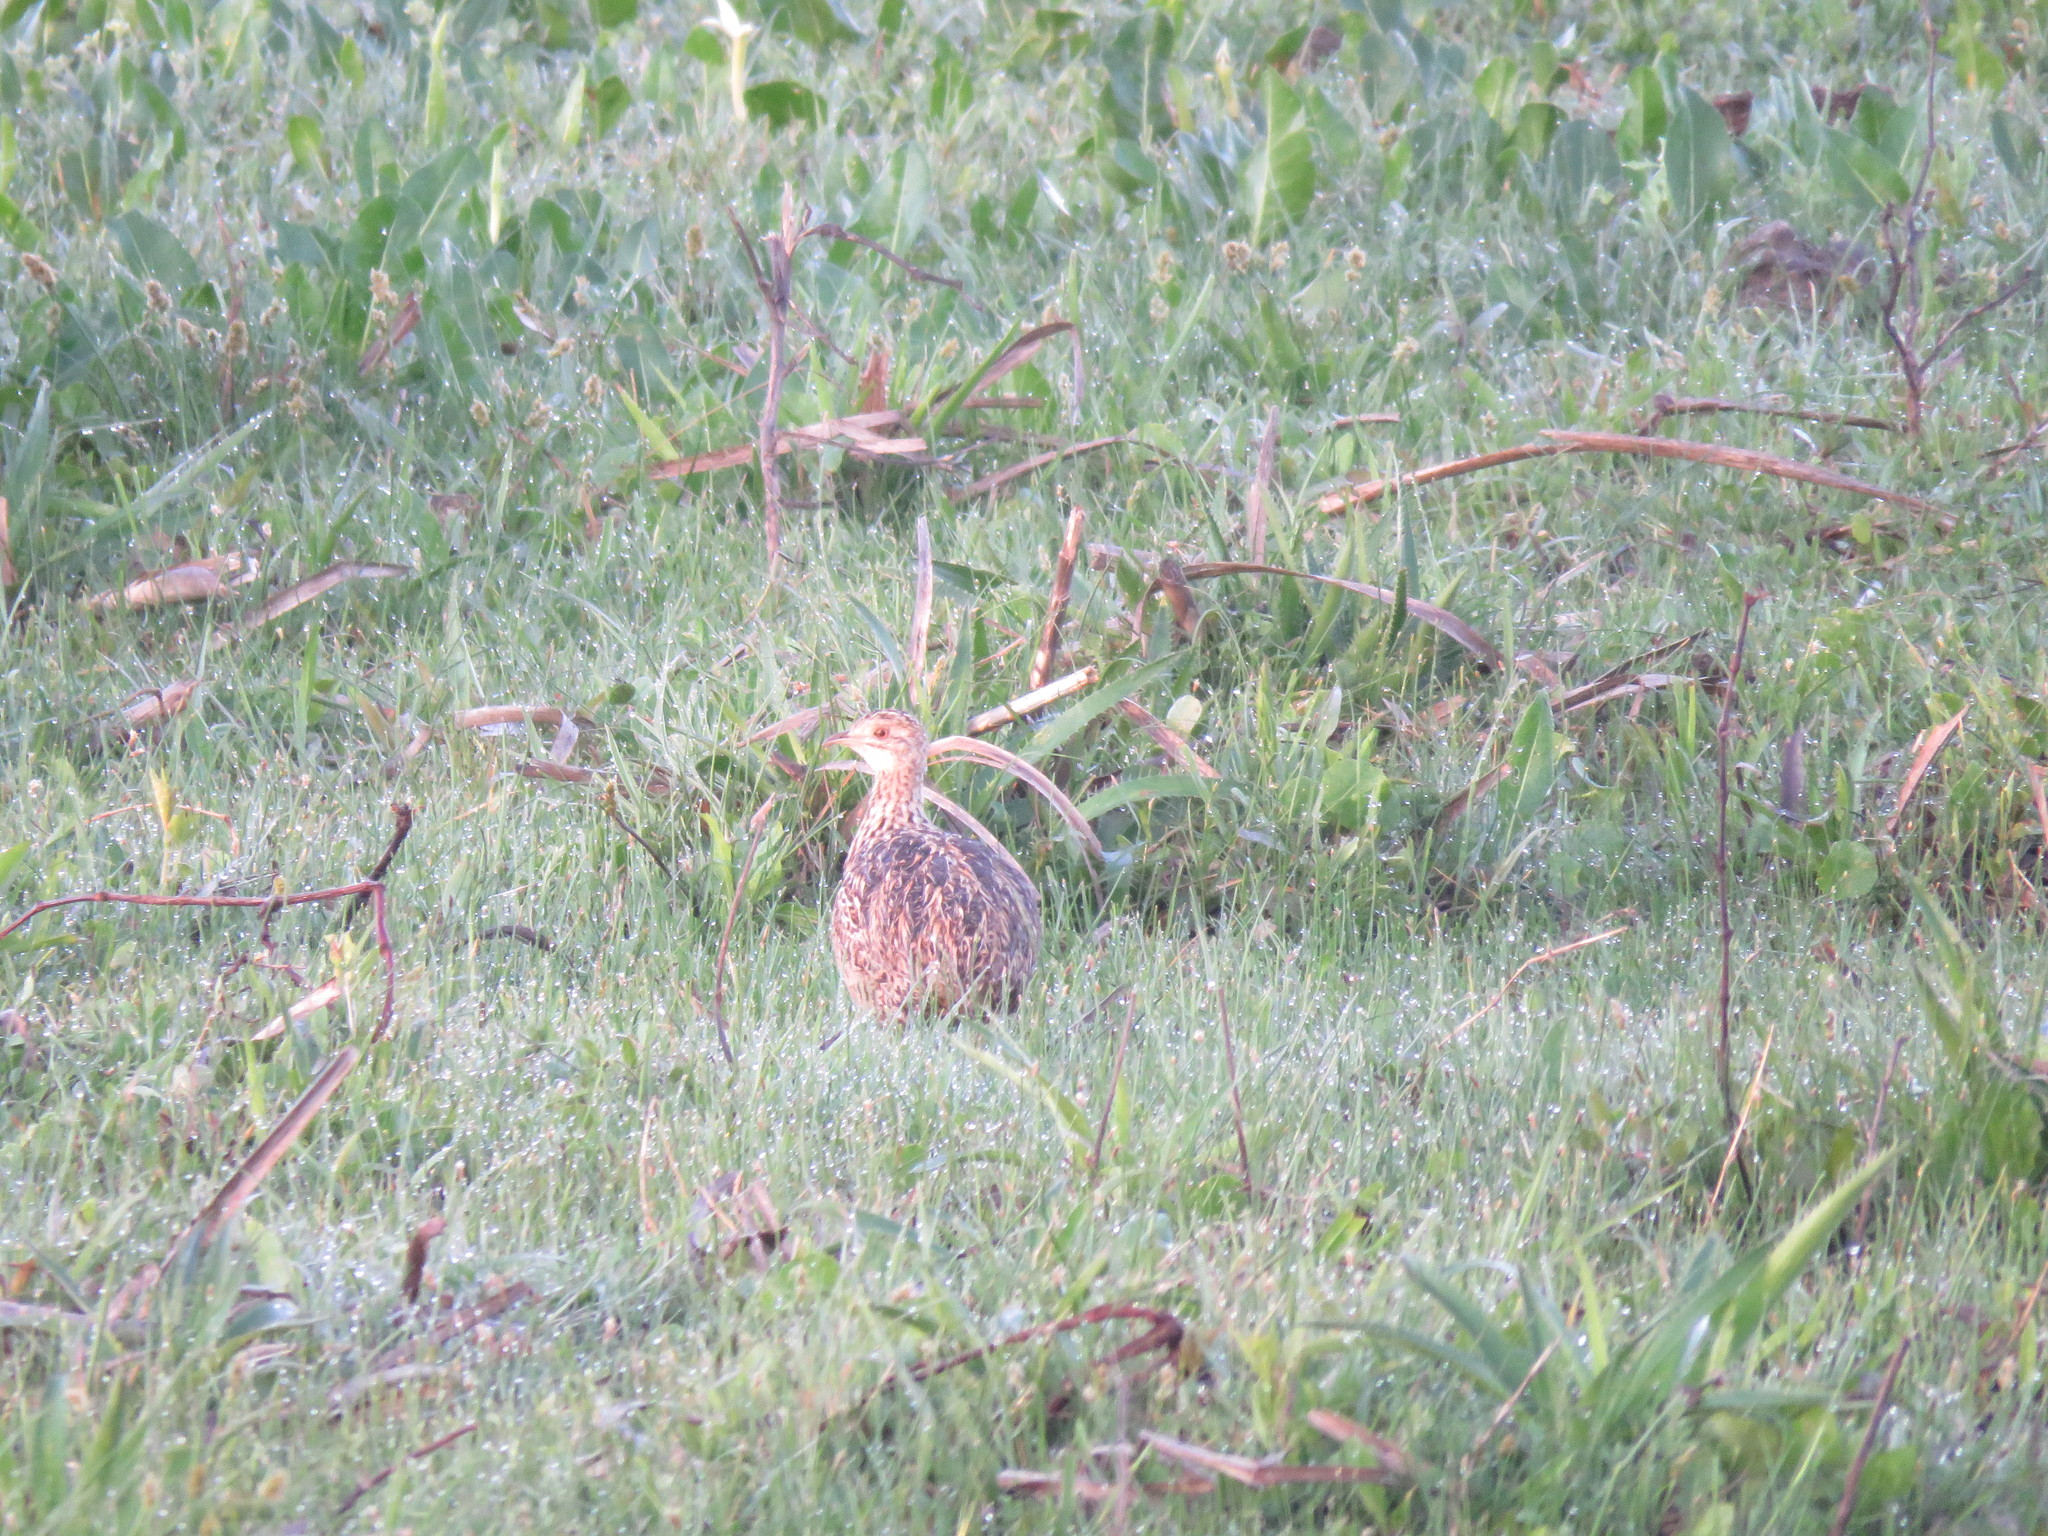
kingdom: Animalia
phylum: Chordata
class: Aves
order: Tinamiformes
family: Tinamidae
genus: Nothura
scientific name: Nothura maculosa
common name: Spotted nothura
